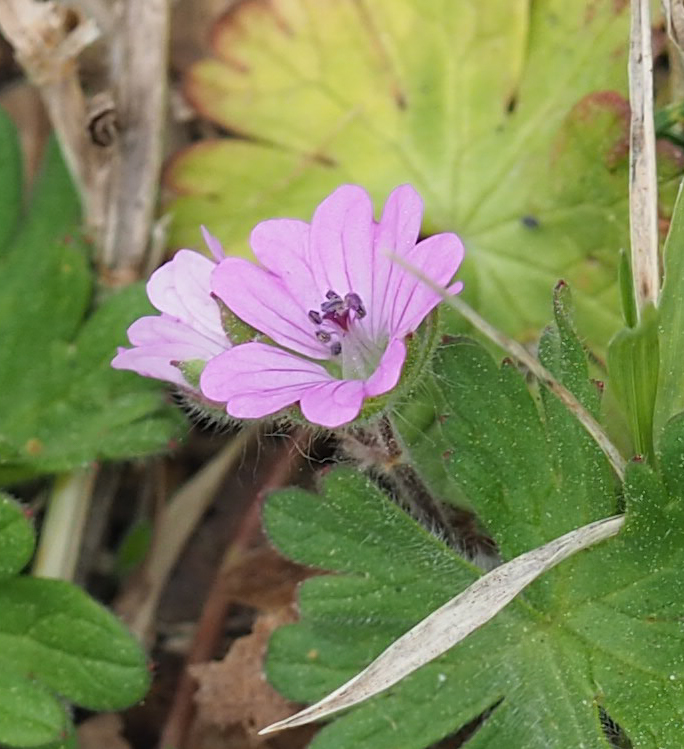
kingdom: Plantae
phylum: Tracheophyta
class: Magnoliopsida
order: Geraniales
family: Geraniaceae
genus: Geranium
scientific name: Geranium molle
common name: Dove's-foot crane's-bill
